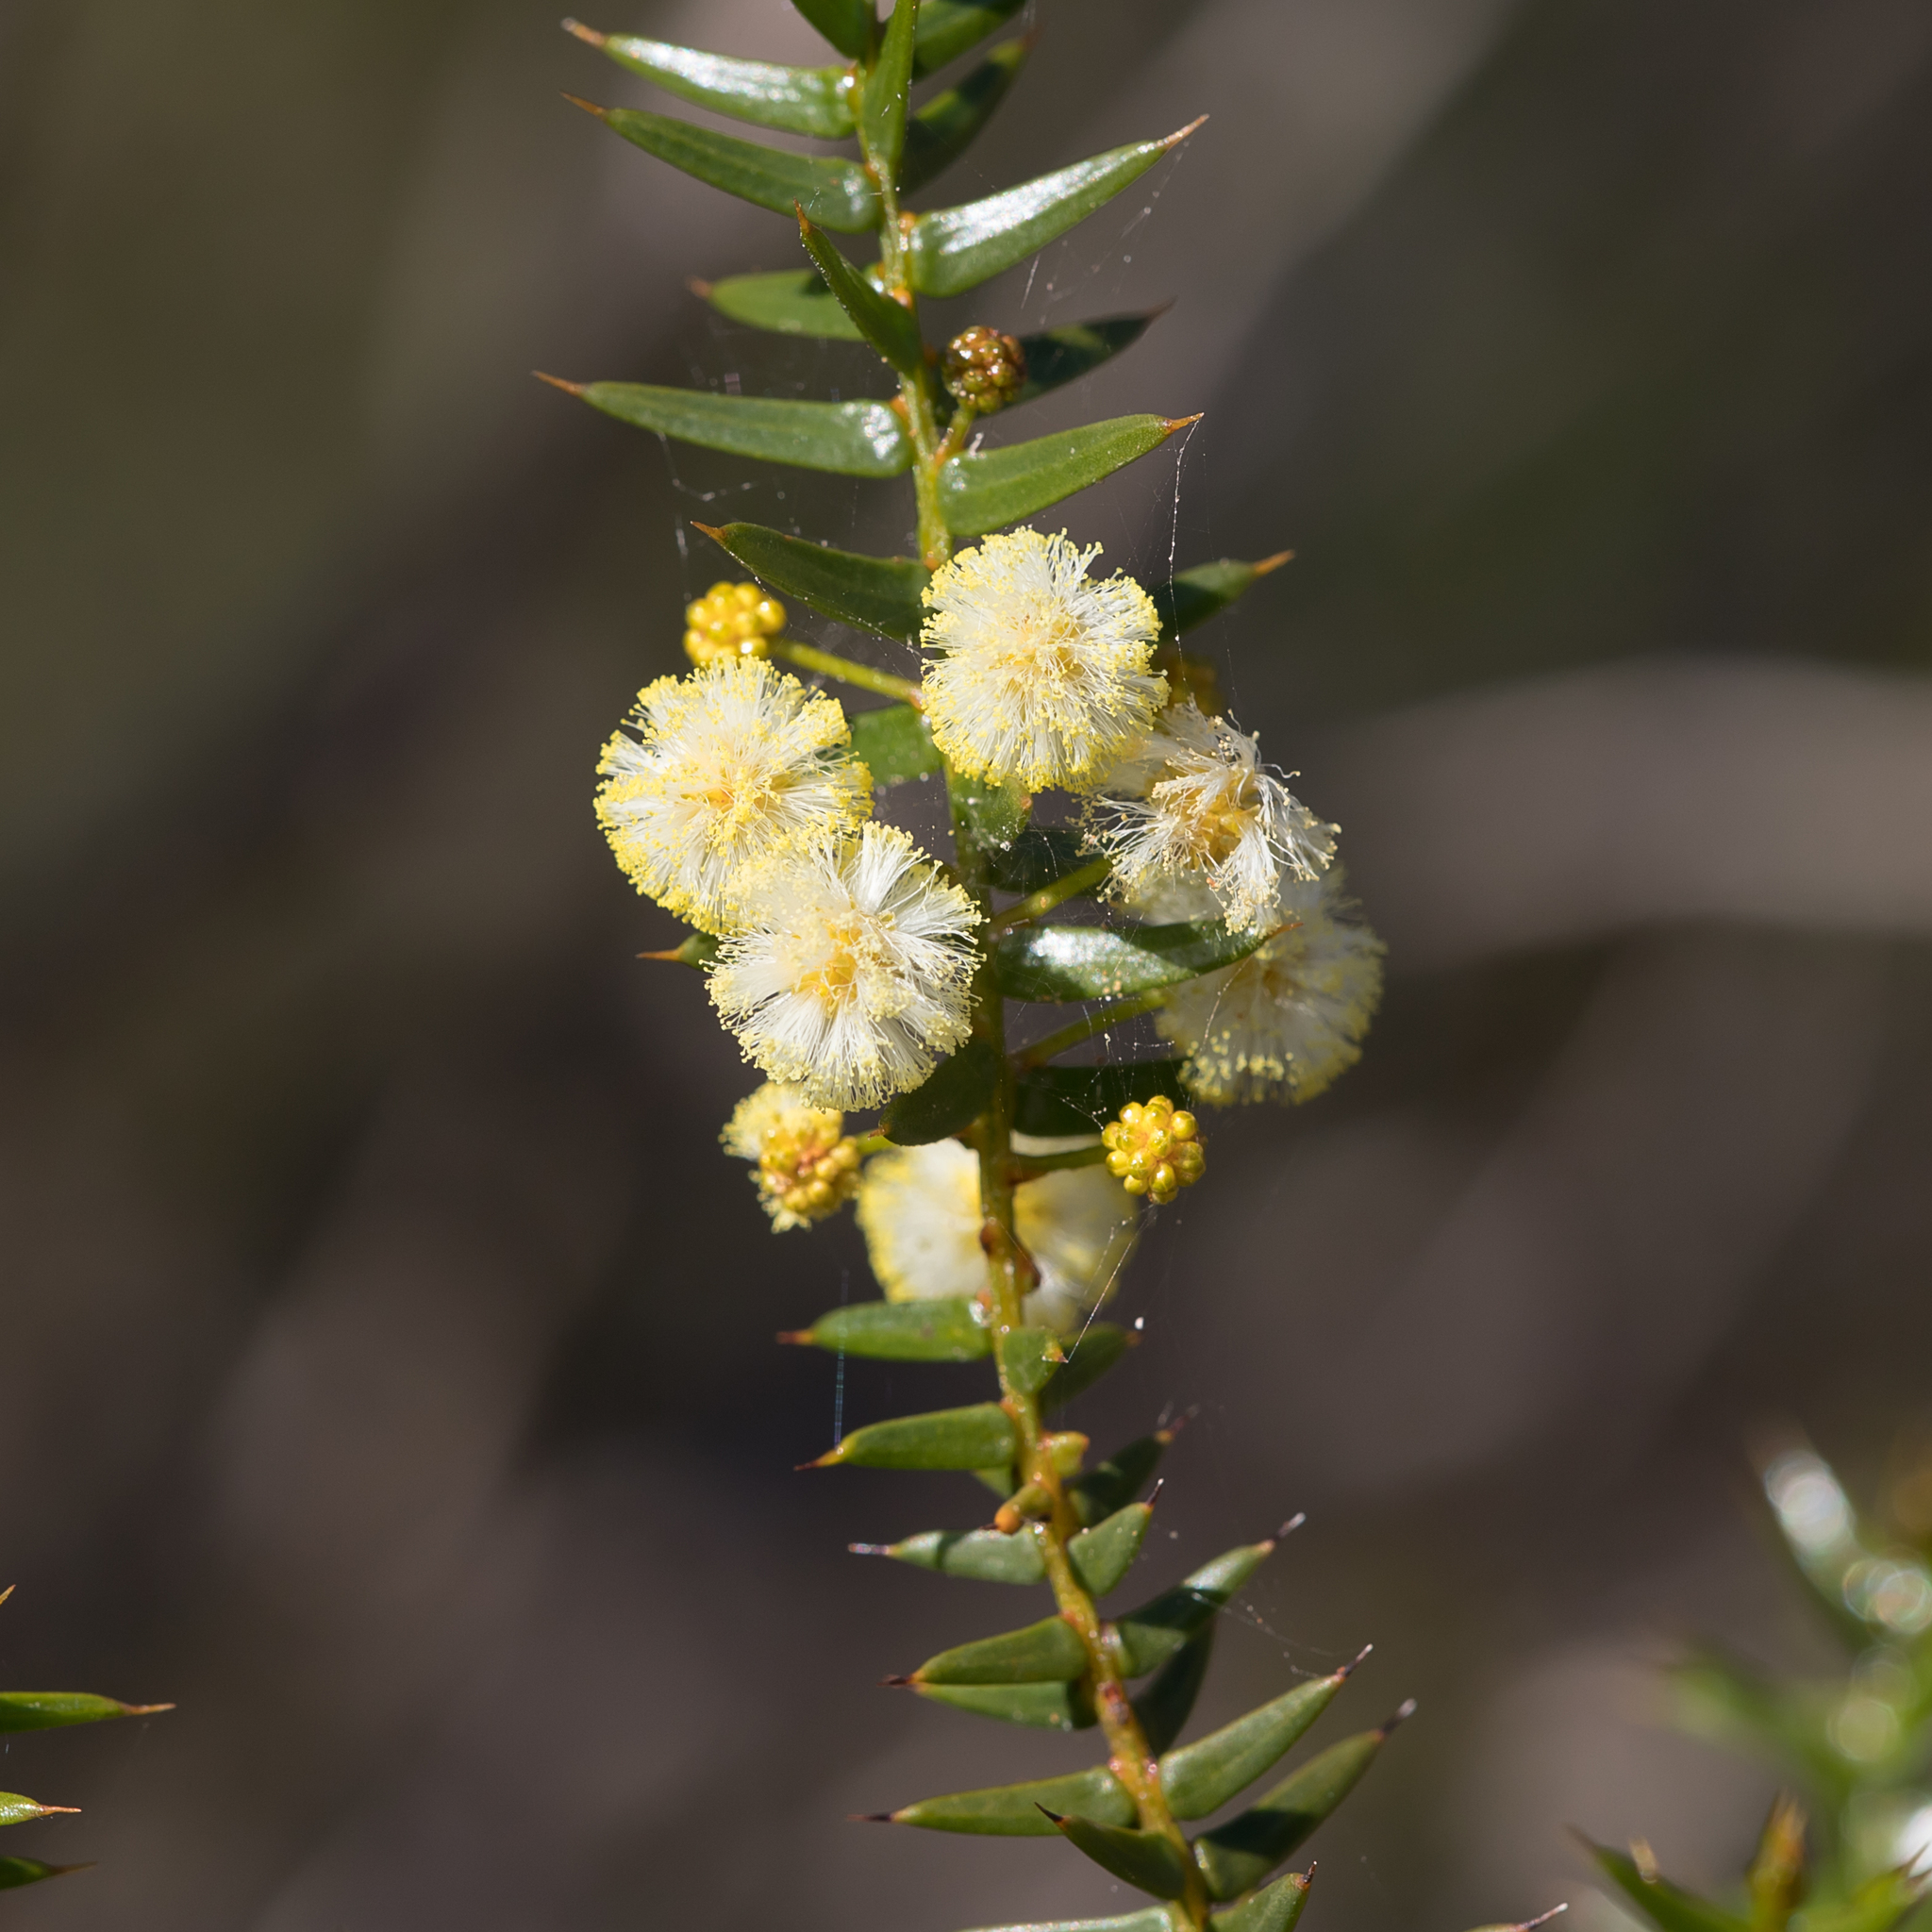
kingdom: Plantae
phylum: Tracheophyta
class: Magnoliopsida
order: Fabales
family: Fabaceae
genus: Acacia
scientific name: Acacia rupicola
